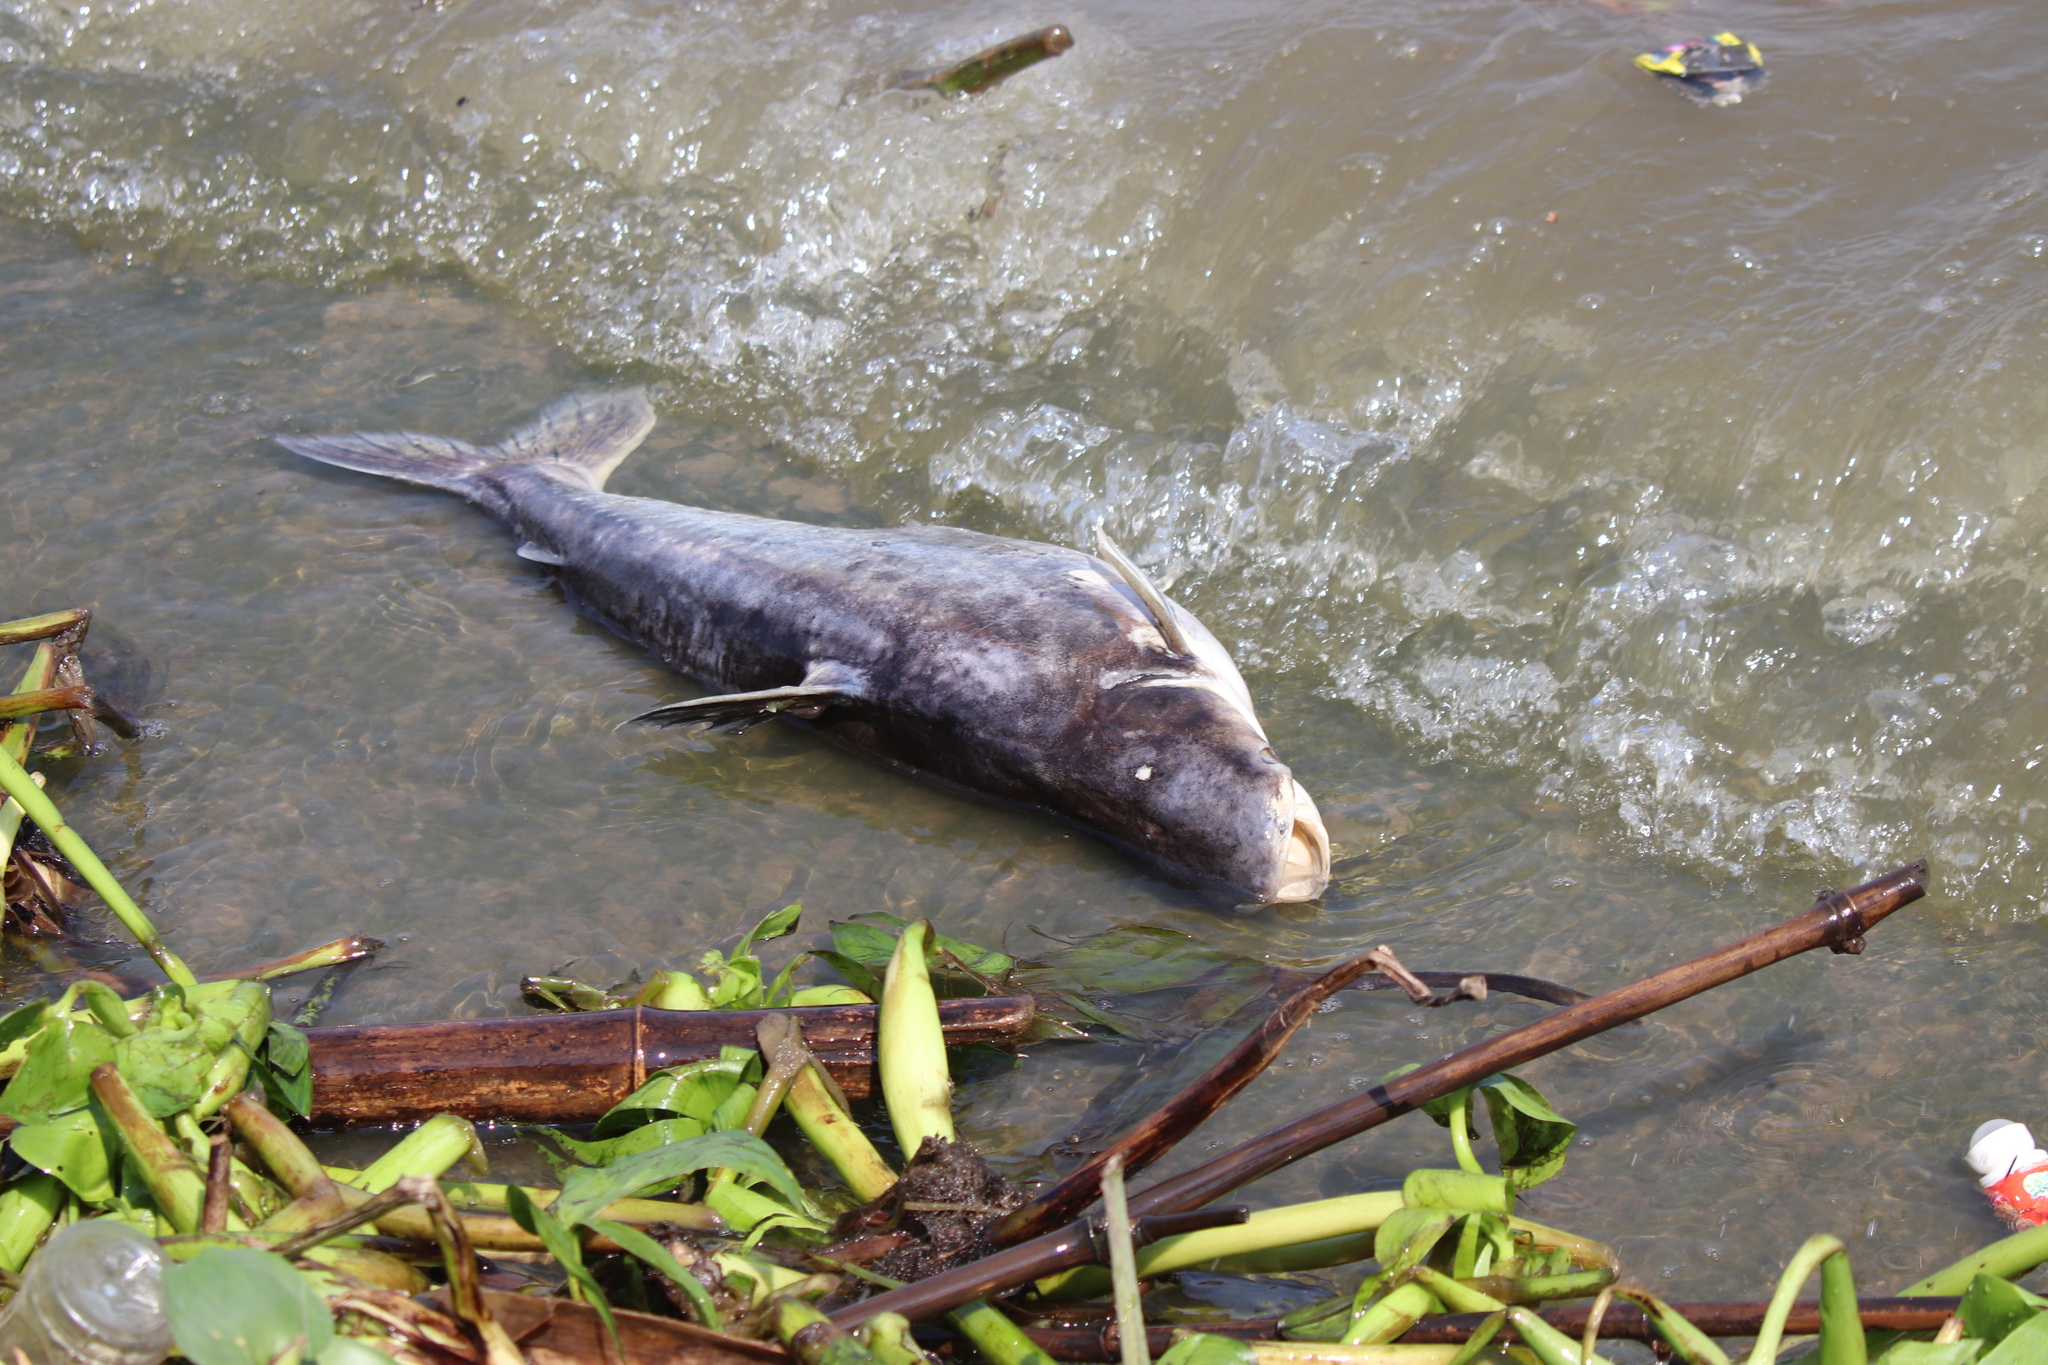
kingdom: Animalia
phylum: Chordata
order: Siluriformes
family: Pangasiidae
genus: Pangasianodon
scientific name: Pangasianodon hypophthalmus
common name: Striped catfish
